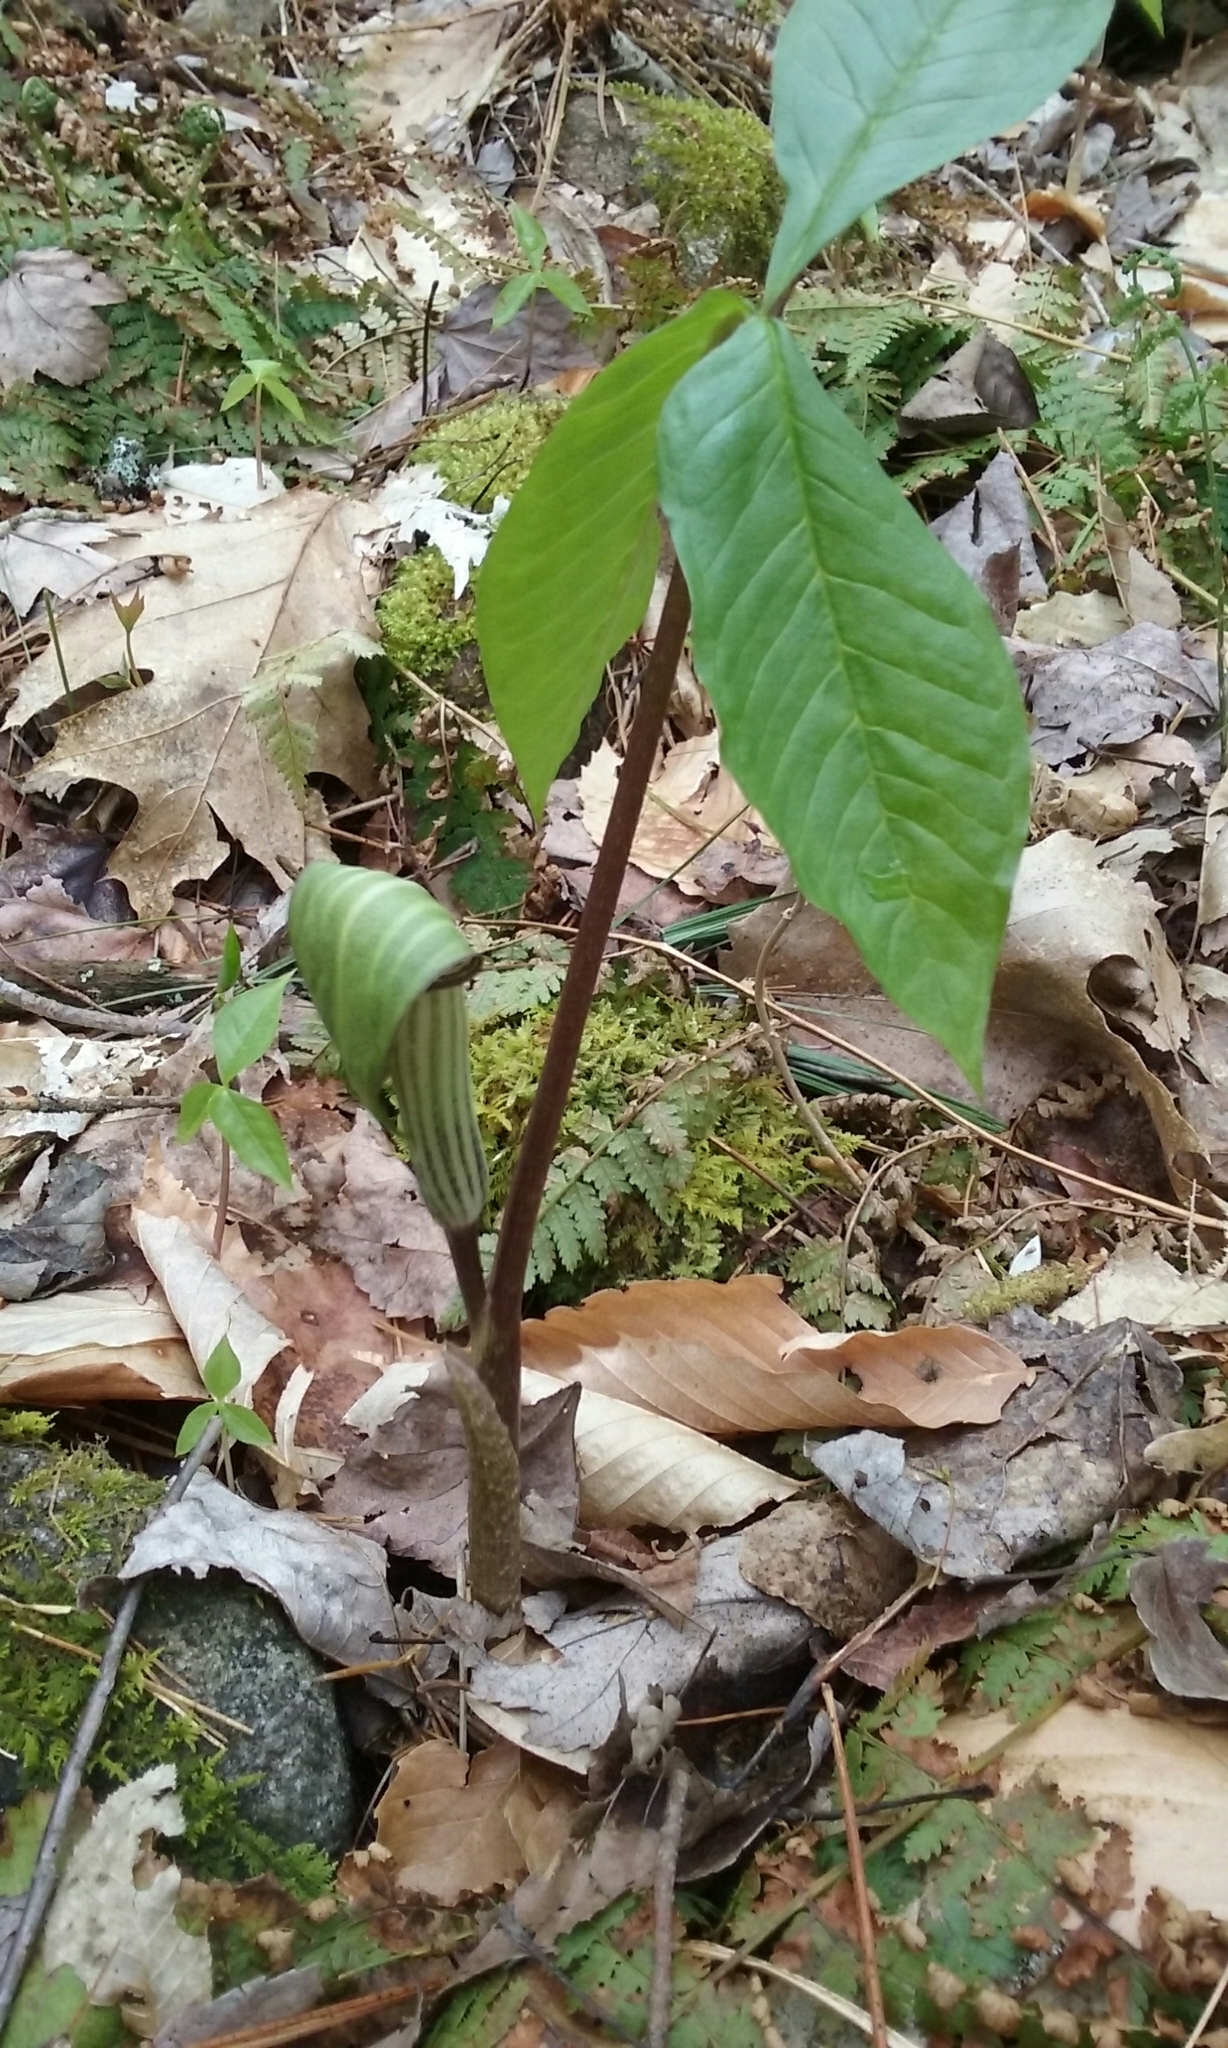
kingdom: Plantae
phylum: Tracheophyta
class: Liliopsida
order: Alismatales
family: Araceae
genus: Arisaema
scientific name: Arisaema triphyllum
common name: Jack-in-the-pulpit
